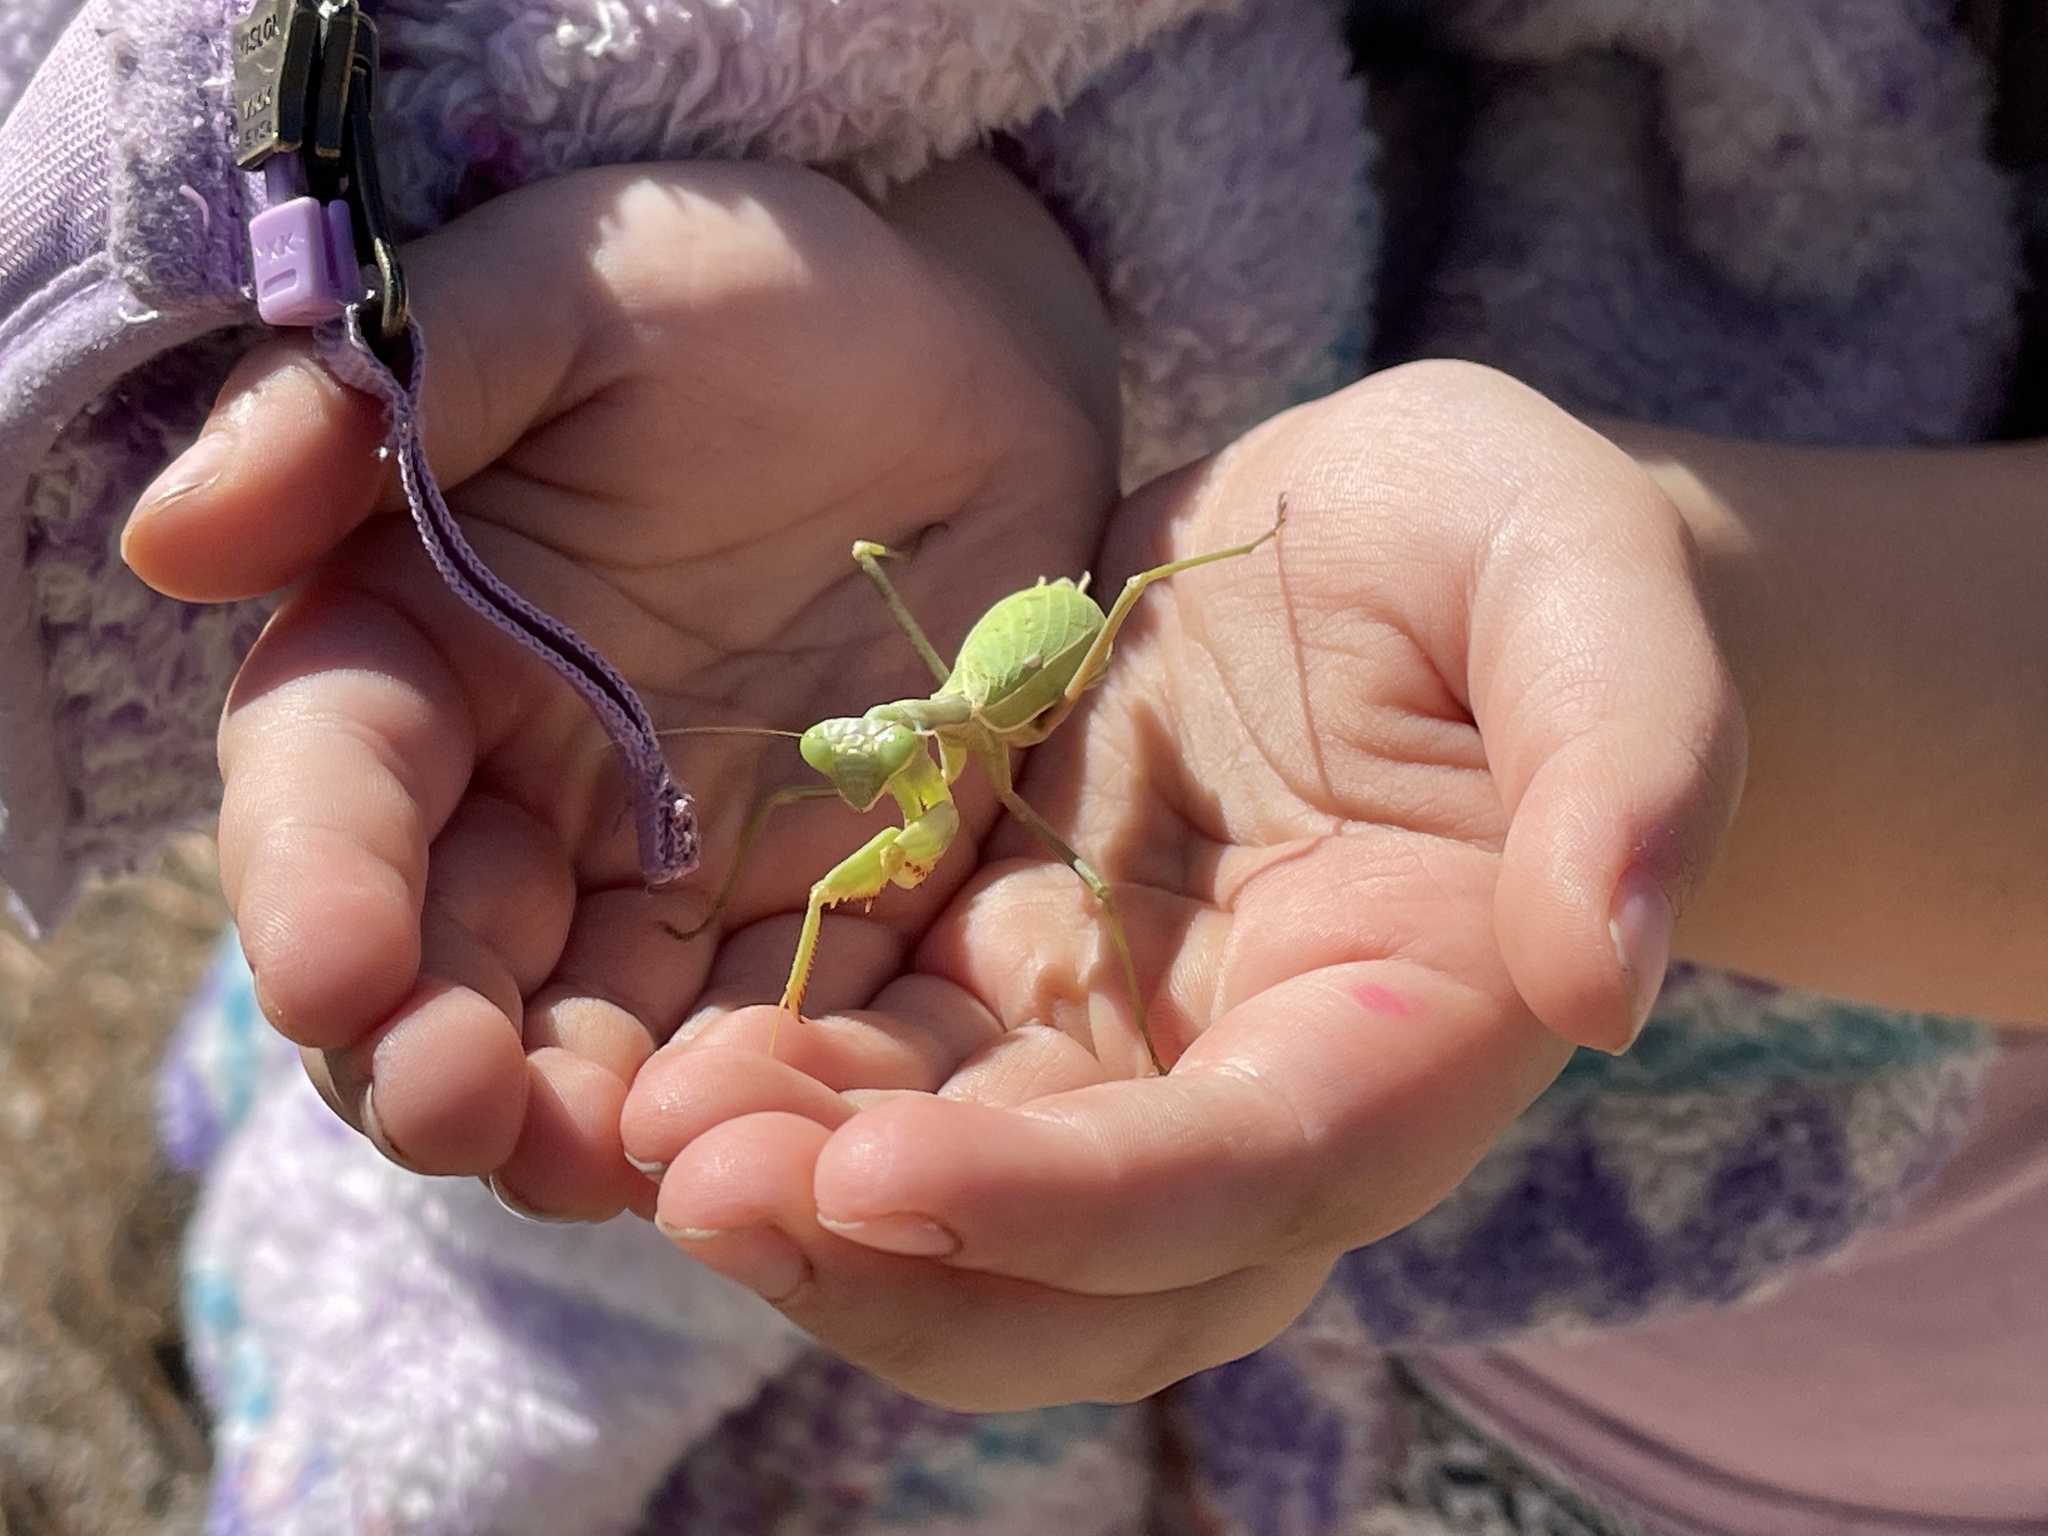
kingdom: Animalia
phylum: Arthropoda
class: Insecta
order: Mantodea
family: Mantidae
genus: Stagmomantis
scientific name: Stagmomantis limbata
